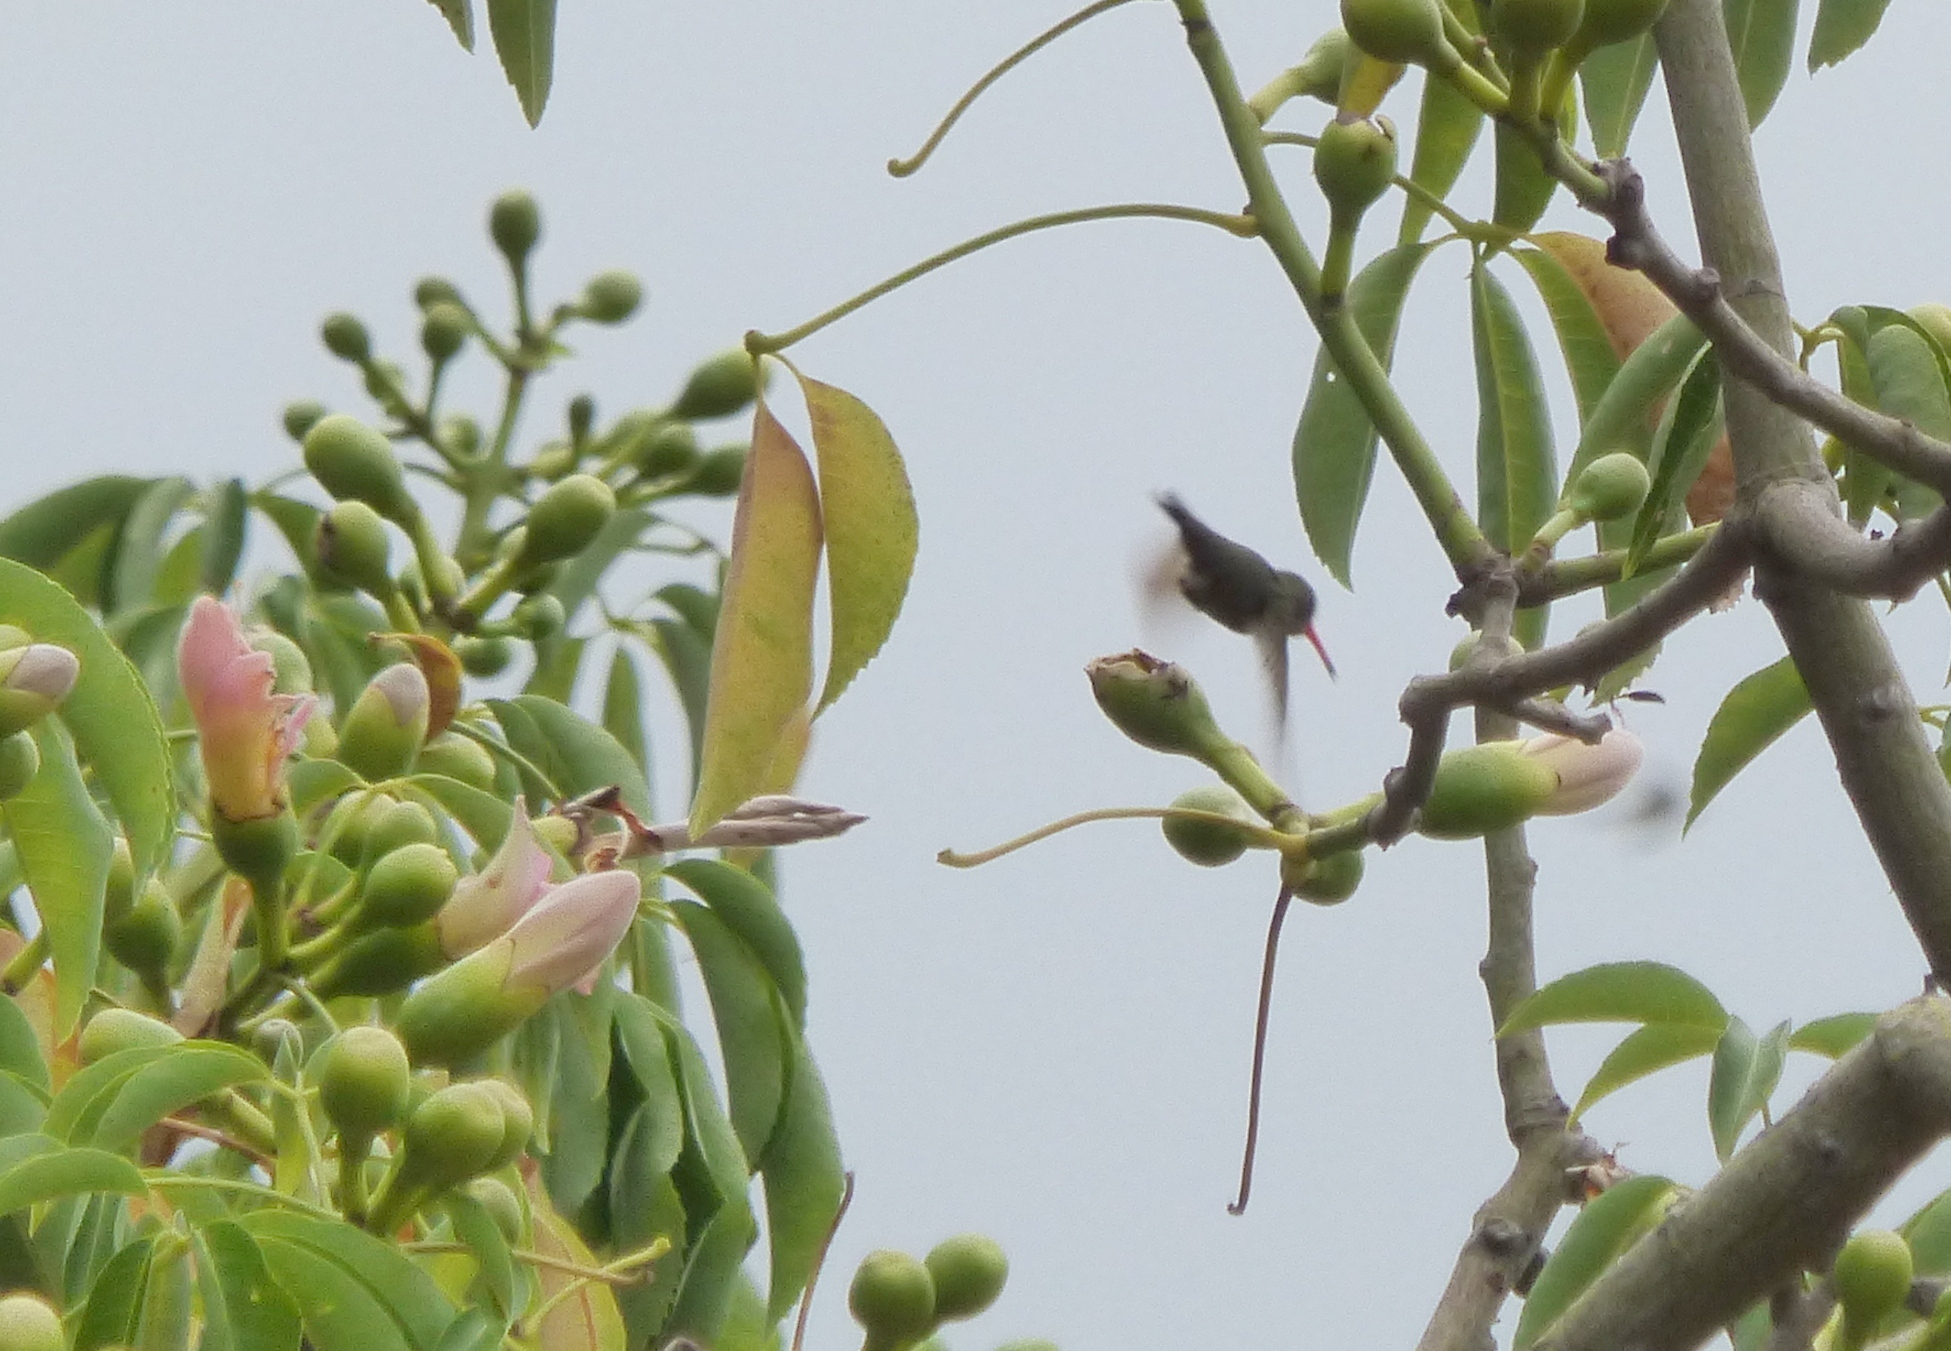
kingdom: Animalia
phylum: Chordata
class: Aves
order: Apodiformes
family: Trochilidae
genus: Hylocharis
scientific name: Hylocharis chrysura
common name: Gilded sapphire
